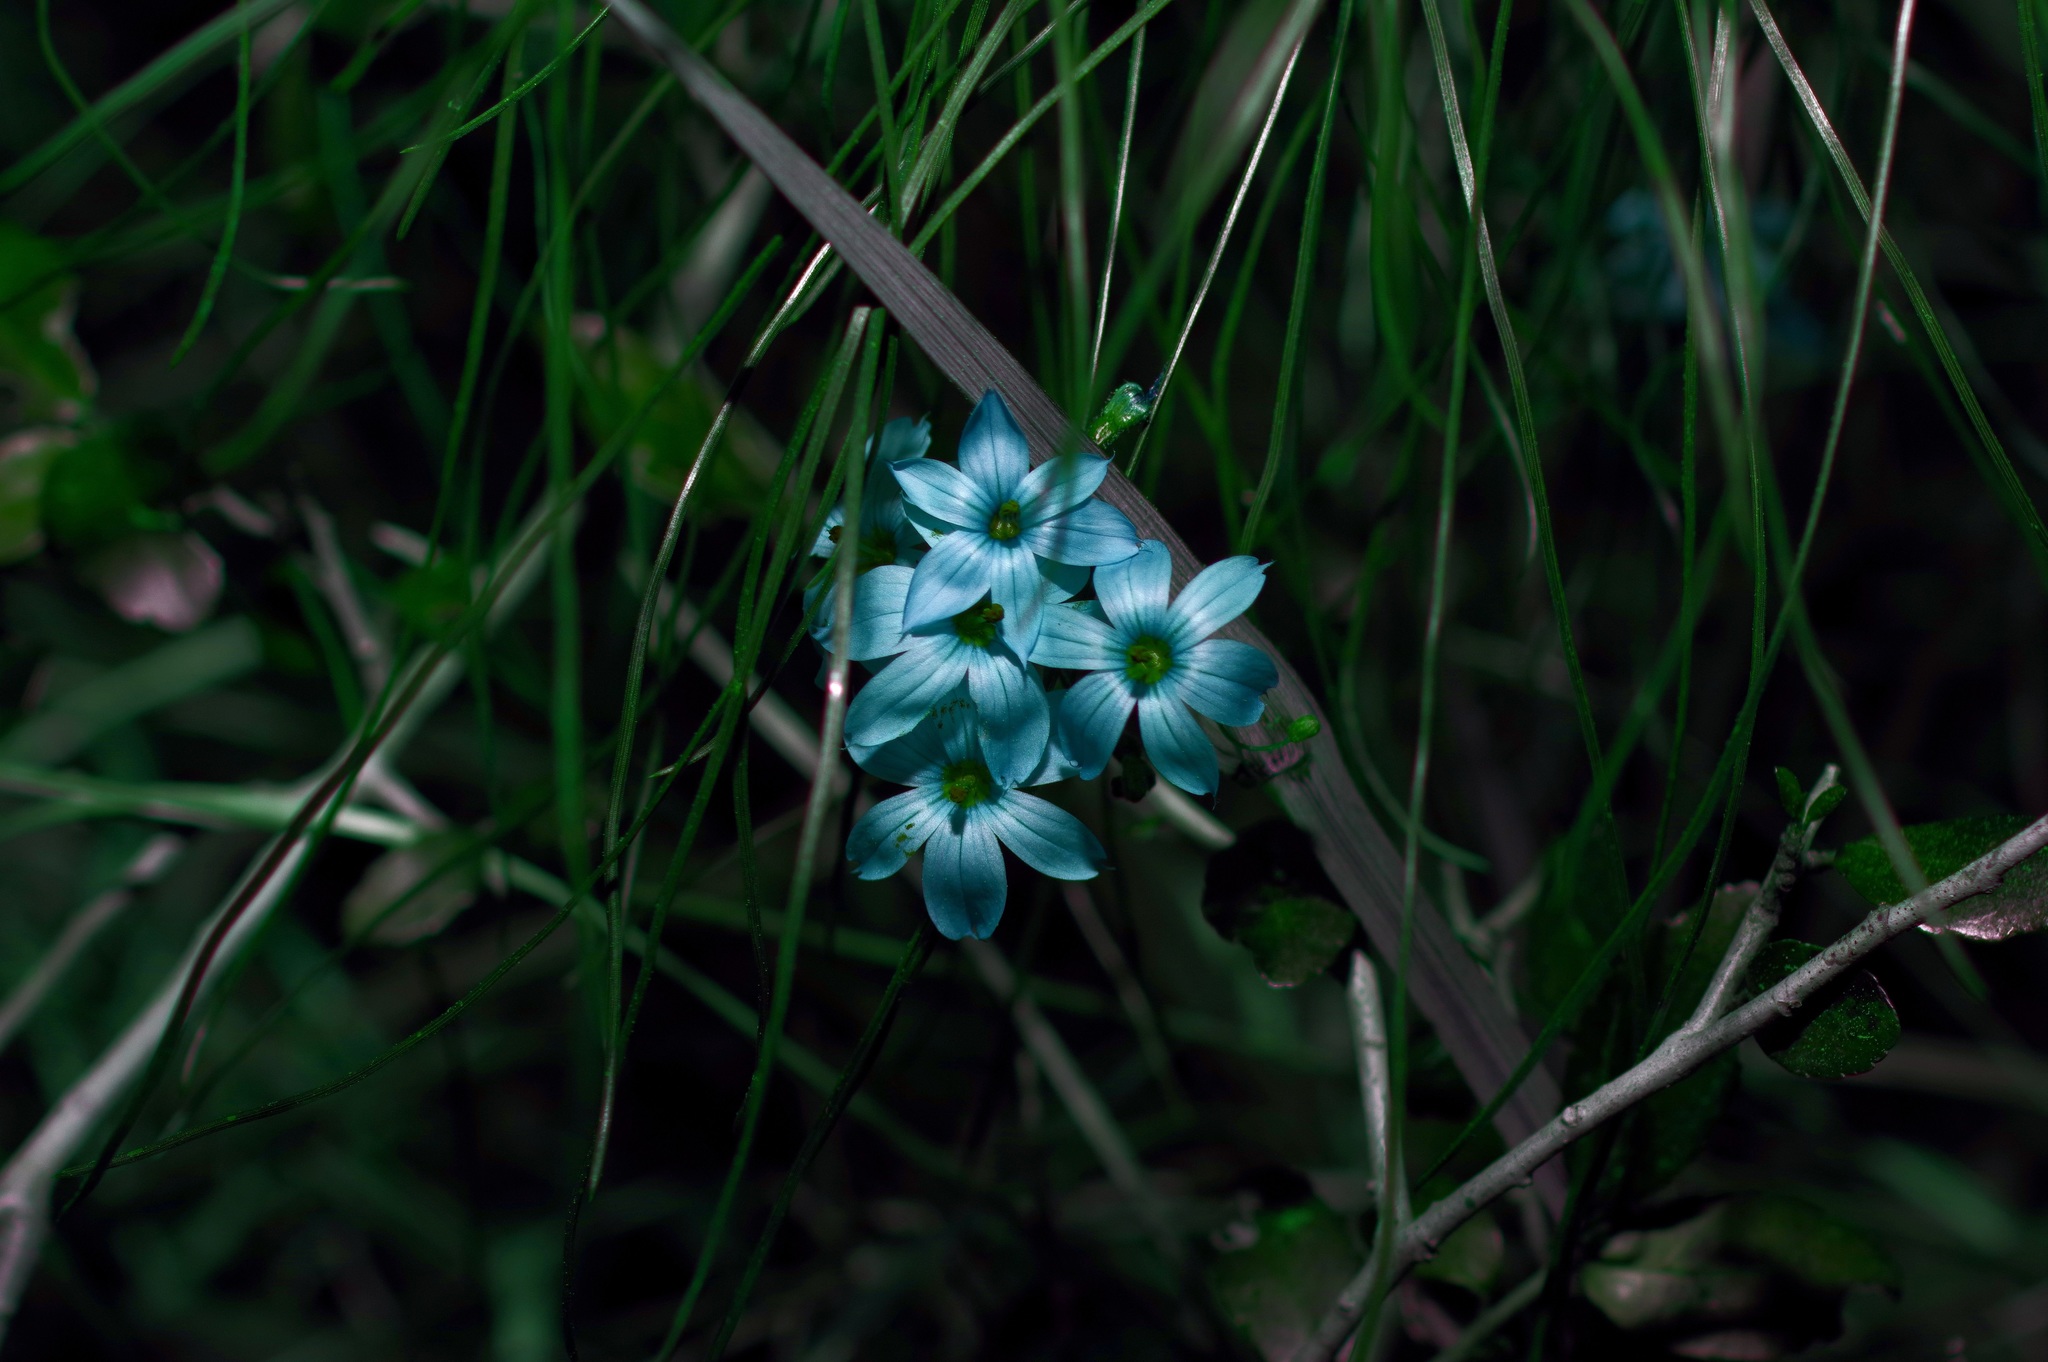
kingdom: Plantae
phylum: Tracheophyta
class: Liliopsida
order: Asparagales
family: Iridaceae
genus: Sisyrinchium
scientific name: Sisyrinchium
